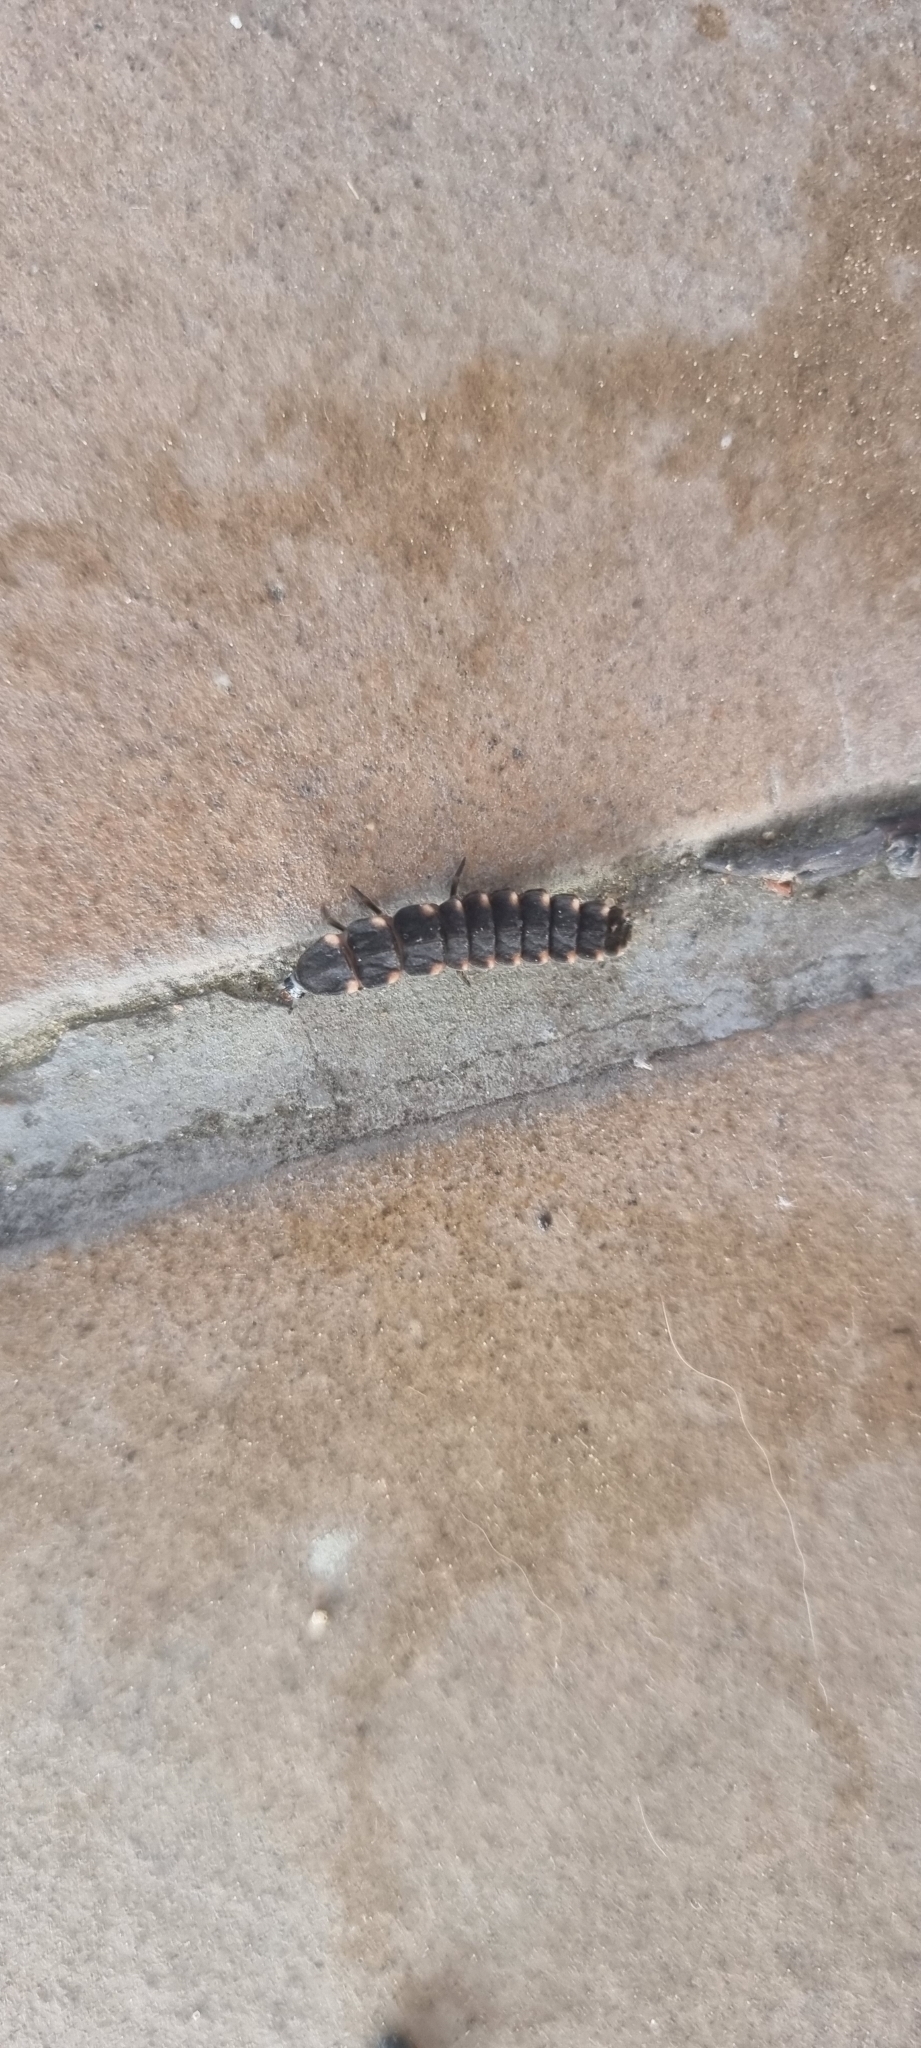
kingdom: Animalia
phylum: Arthropoda
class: Insecta
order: Coleoptera
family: Lampyridae
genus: Lampyris
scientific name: Lampyris noctiluca
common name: Glow-worm
